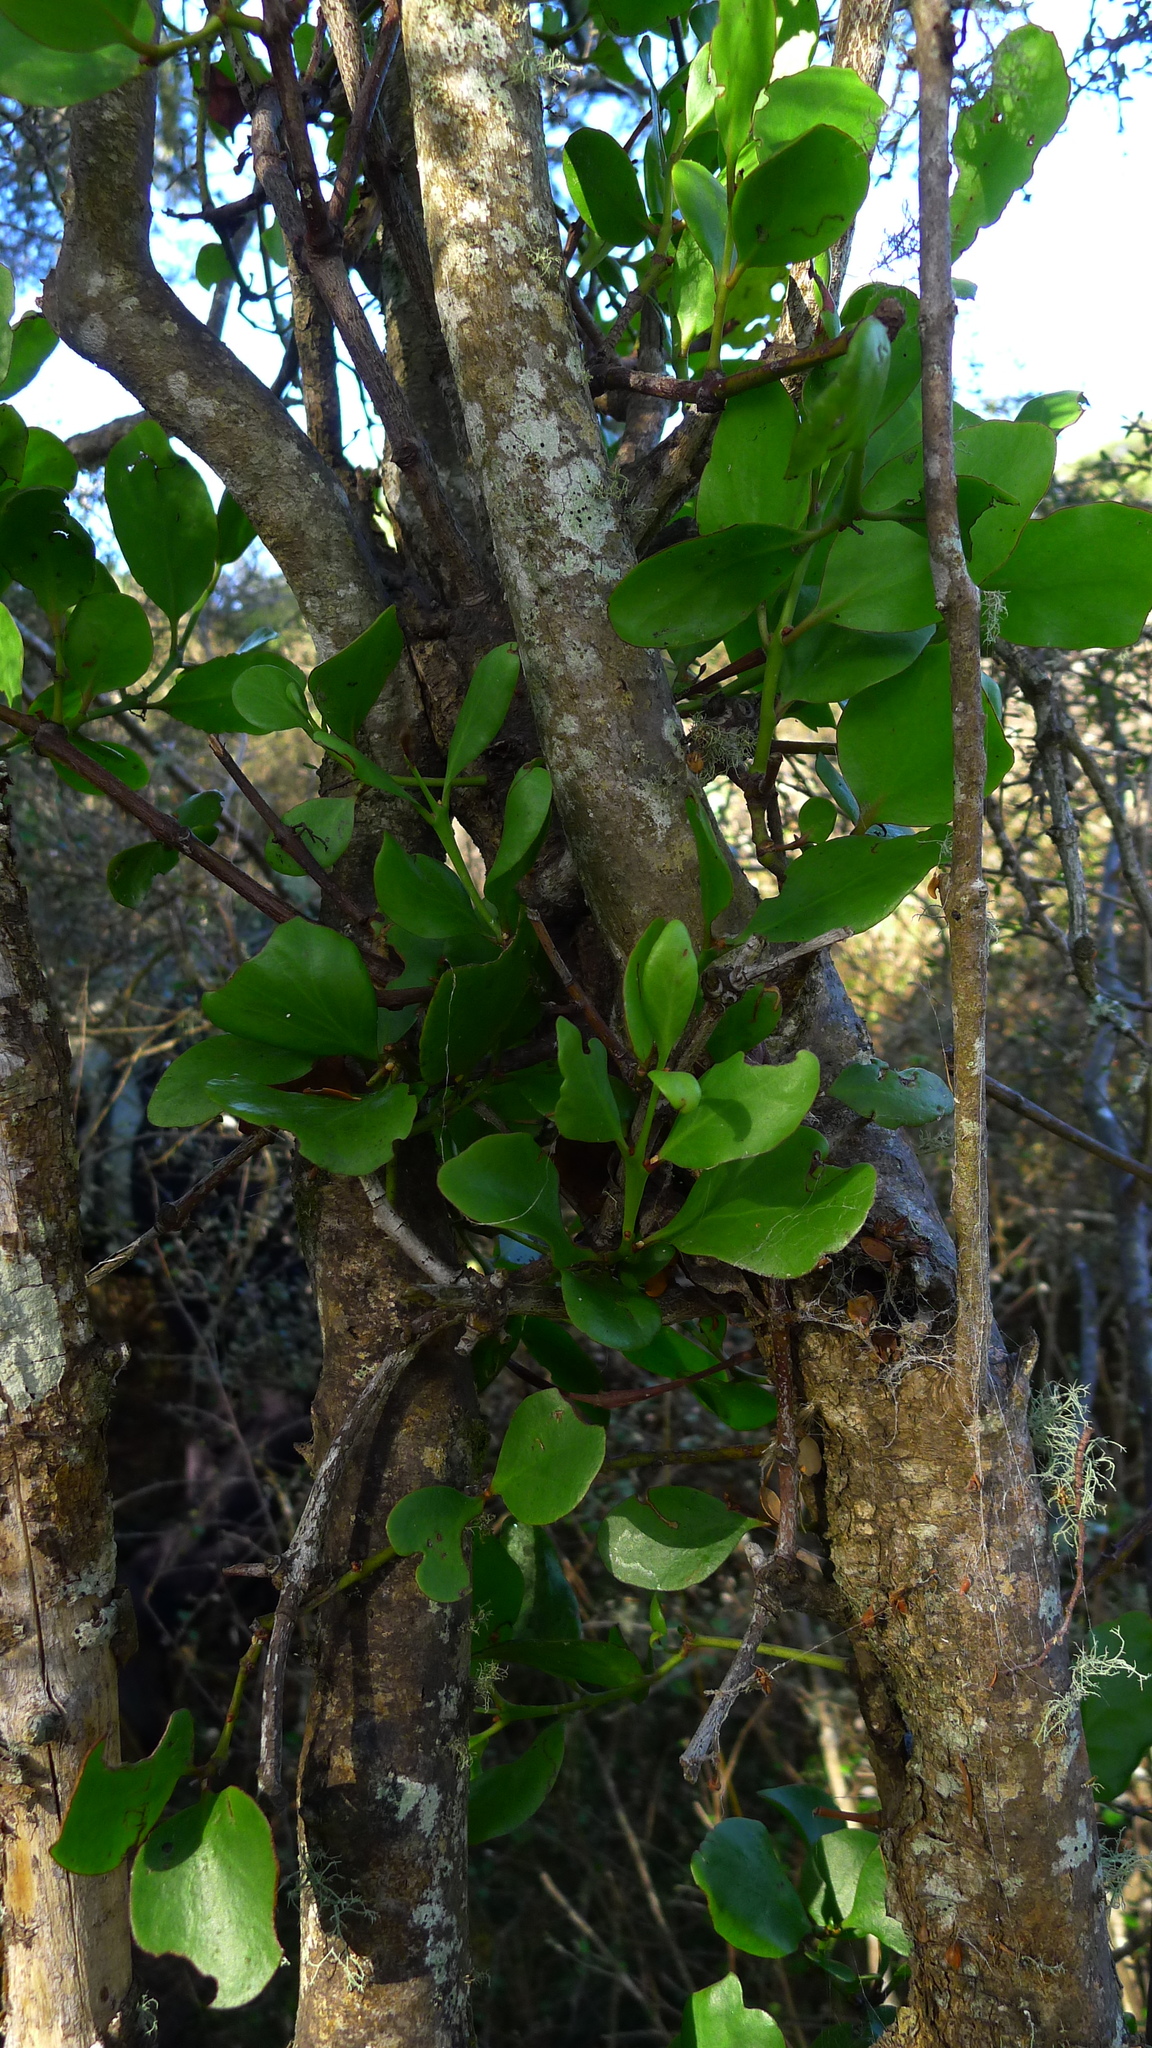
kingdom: Plantae
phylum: Tracheophyta
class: Magnoliopsida
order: Santalales
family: Loranthaceae
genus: Ileostylus
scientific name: Ileostylus micranthus
